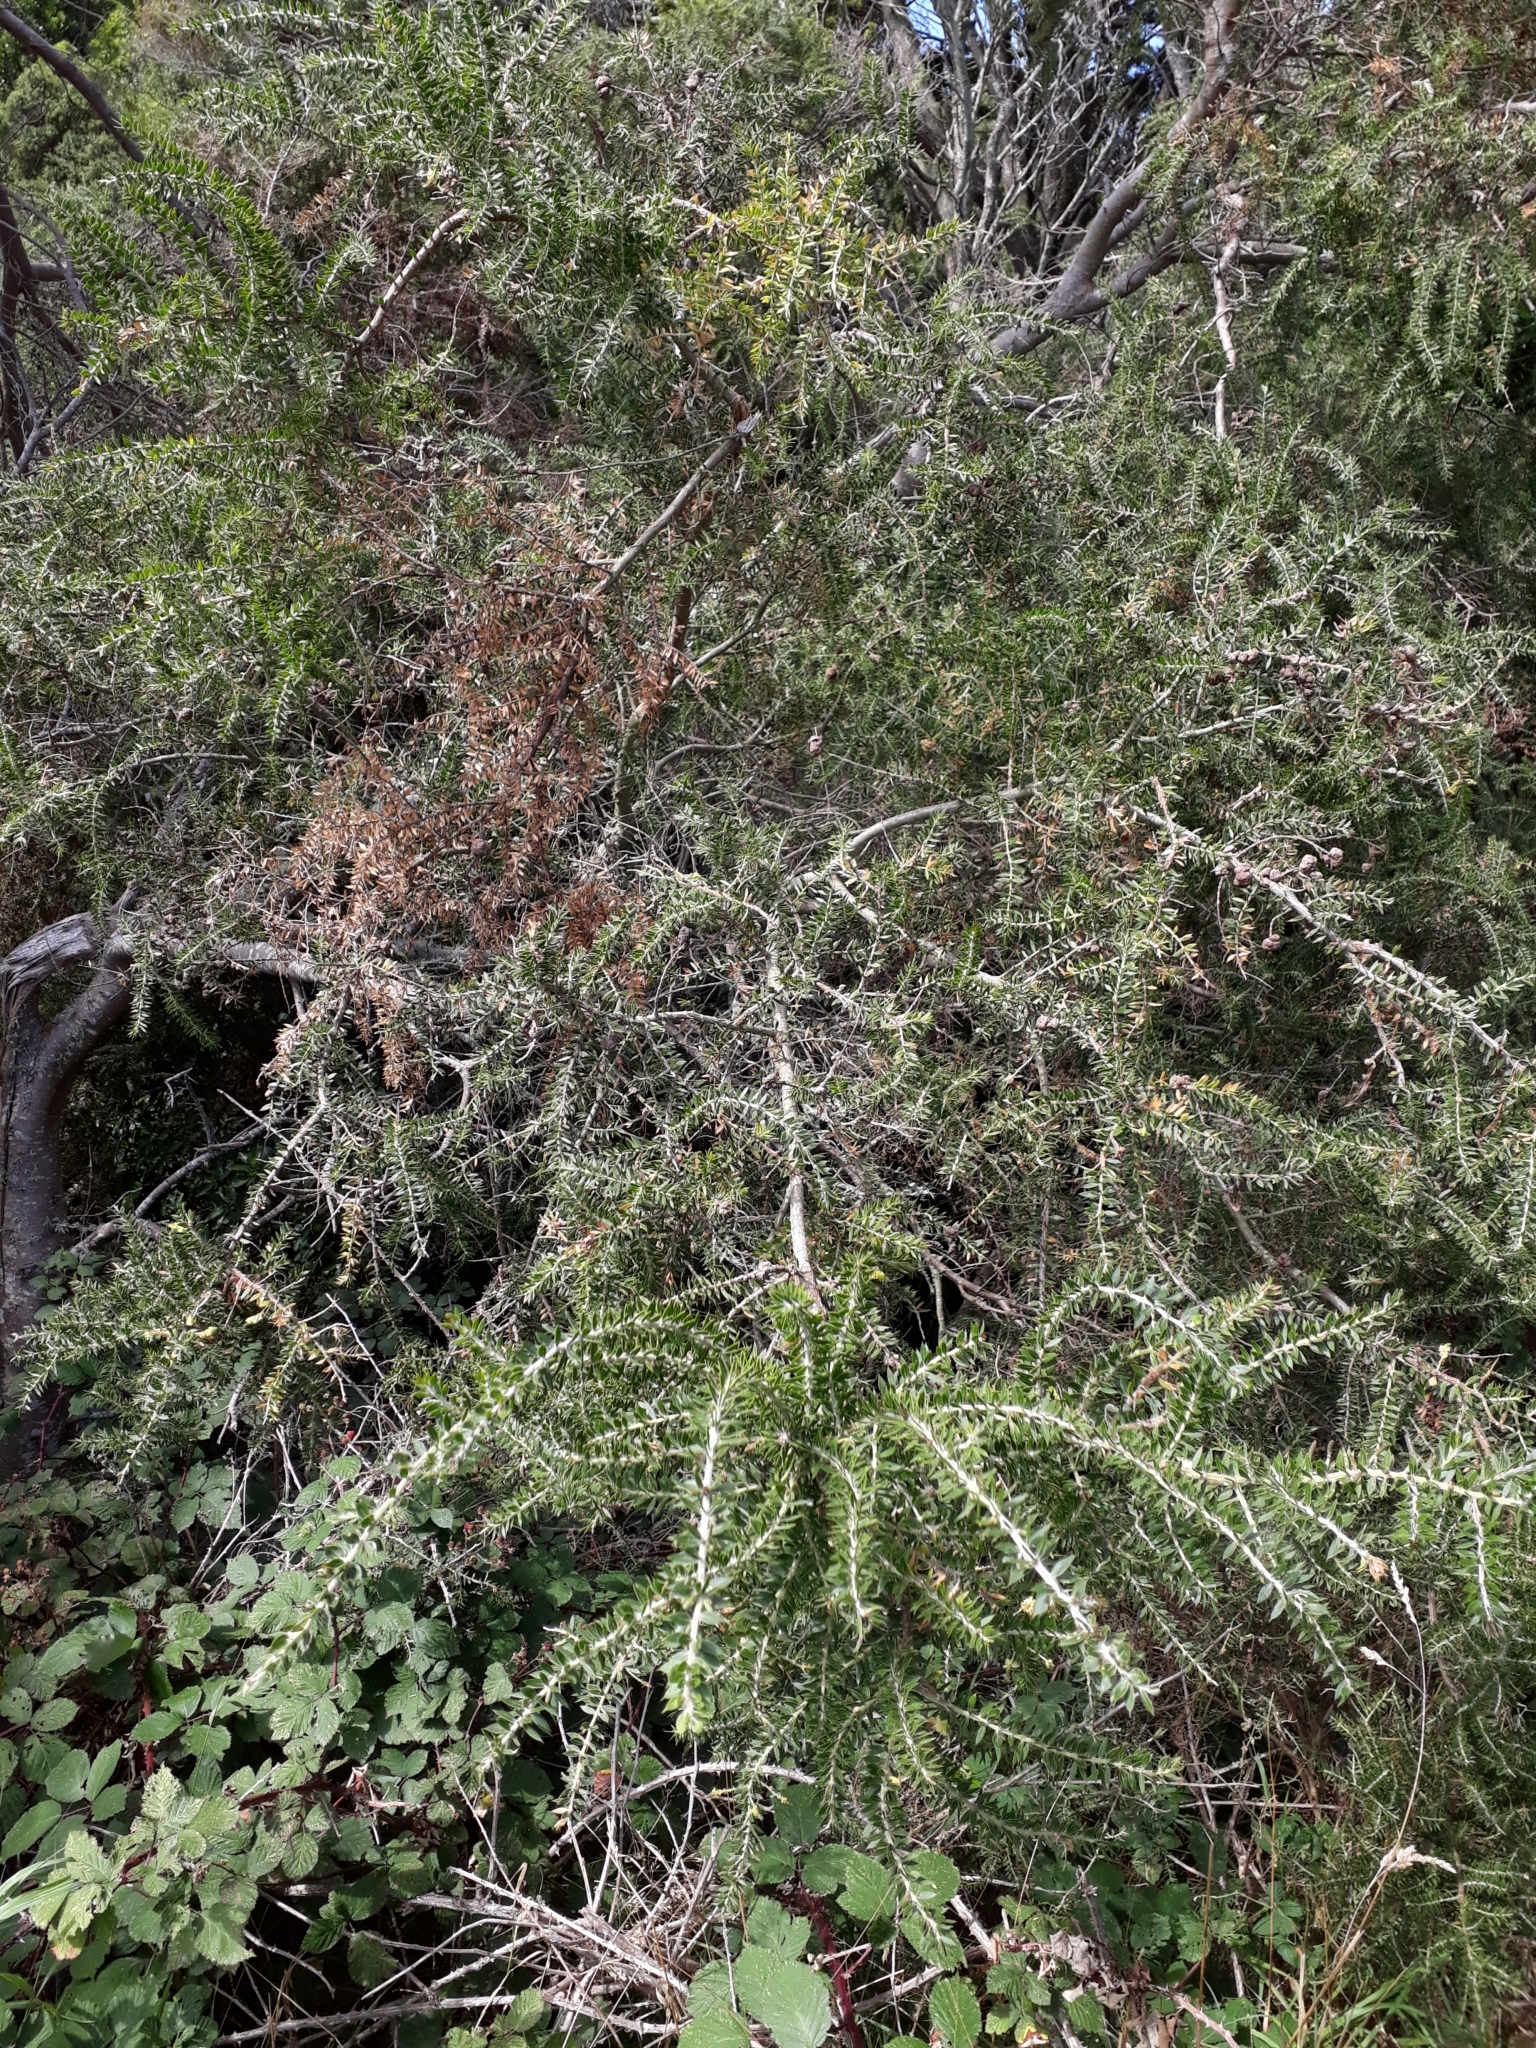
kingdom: Plantae
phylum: Tracheophyta
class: Magnoliopsida
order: Fabales
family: Fabaceae
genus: Acacia
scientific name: Acacia verticillata
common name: Prickly moses
